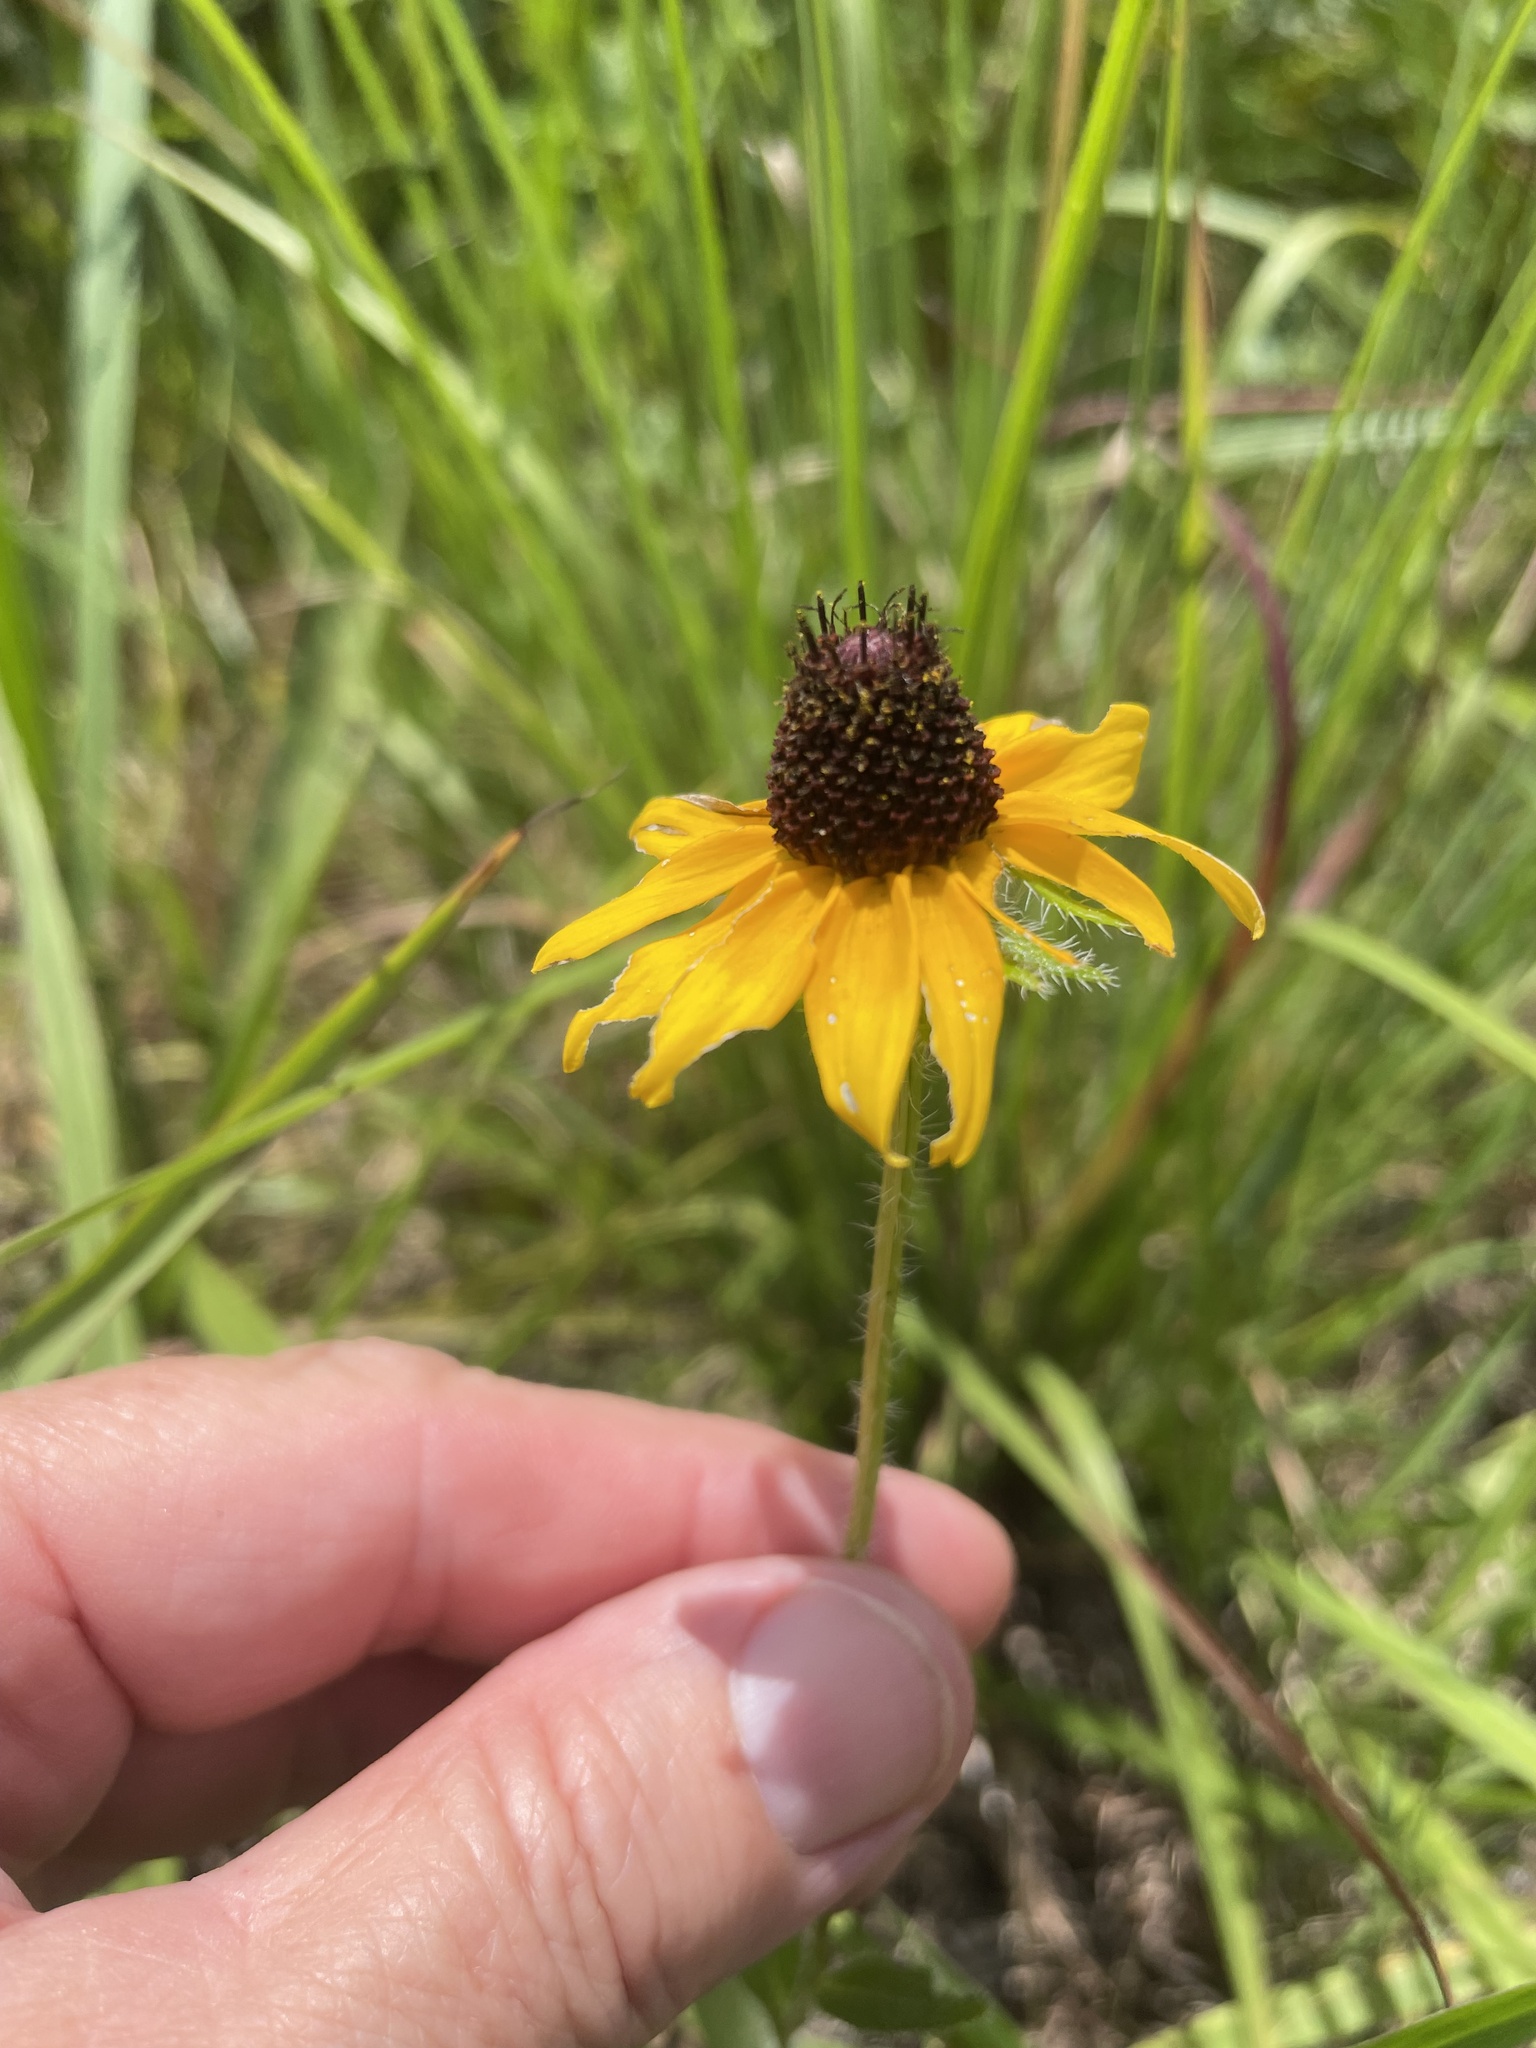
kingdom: Plantae
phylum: Tracheophyta
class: Magnoliopsida
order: Asterales
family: Asteraceae
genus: Rudbeckia
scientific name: Rudbeckia hirta
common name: Black-eyed-susan
